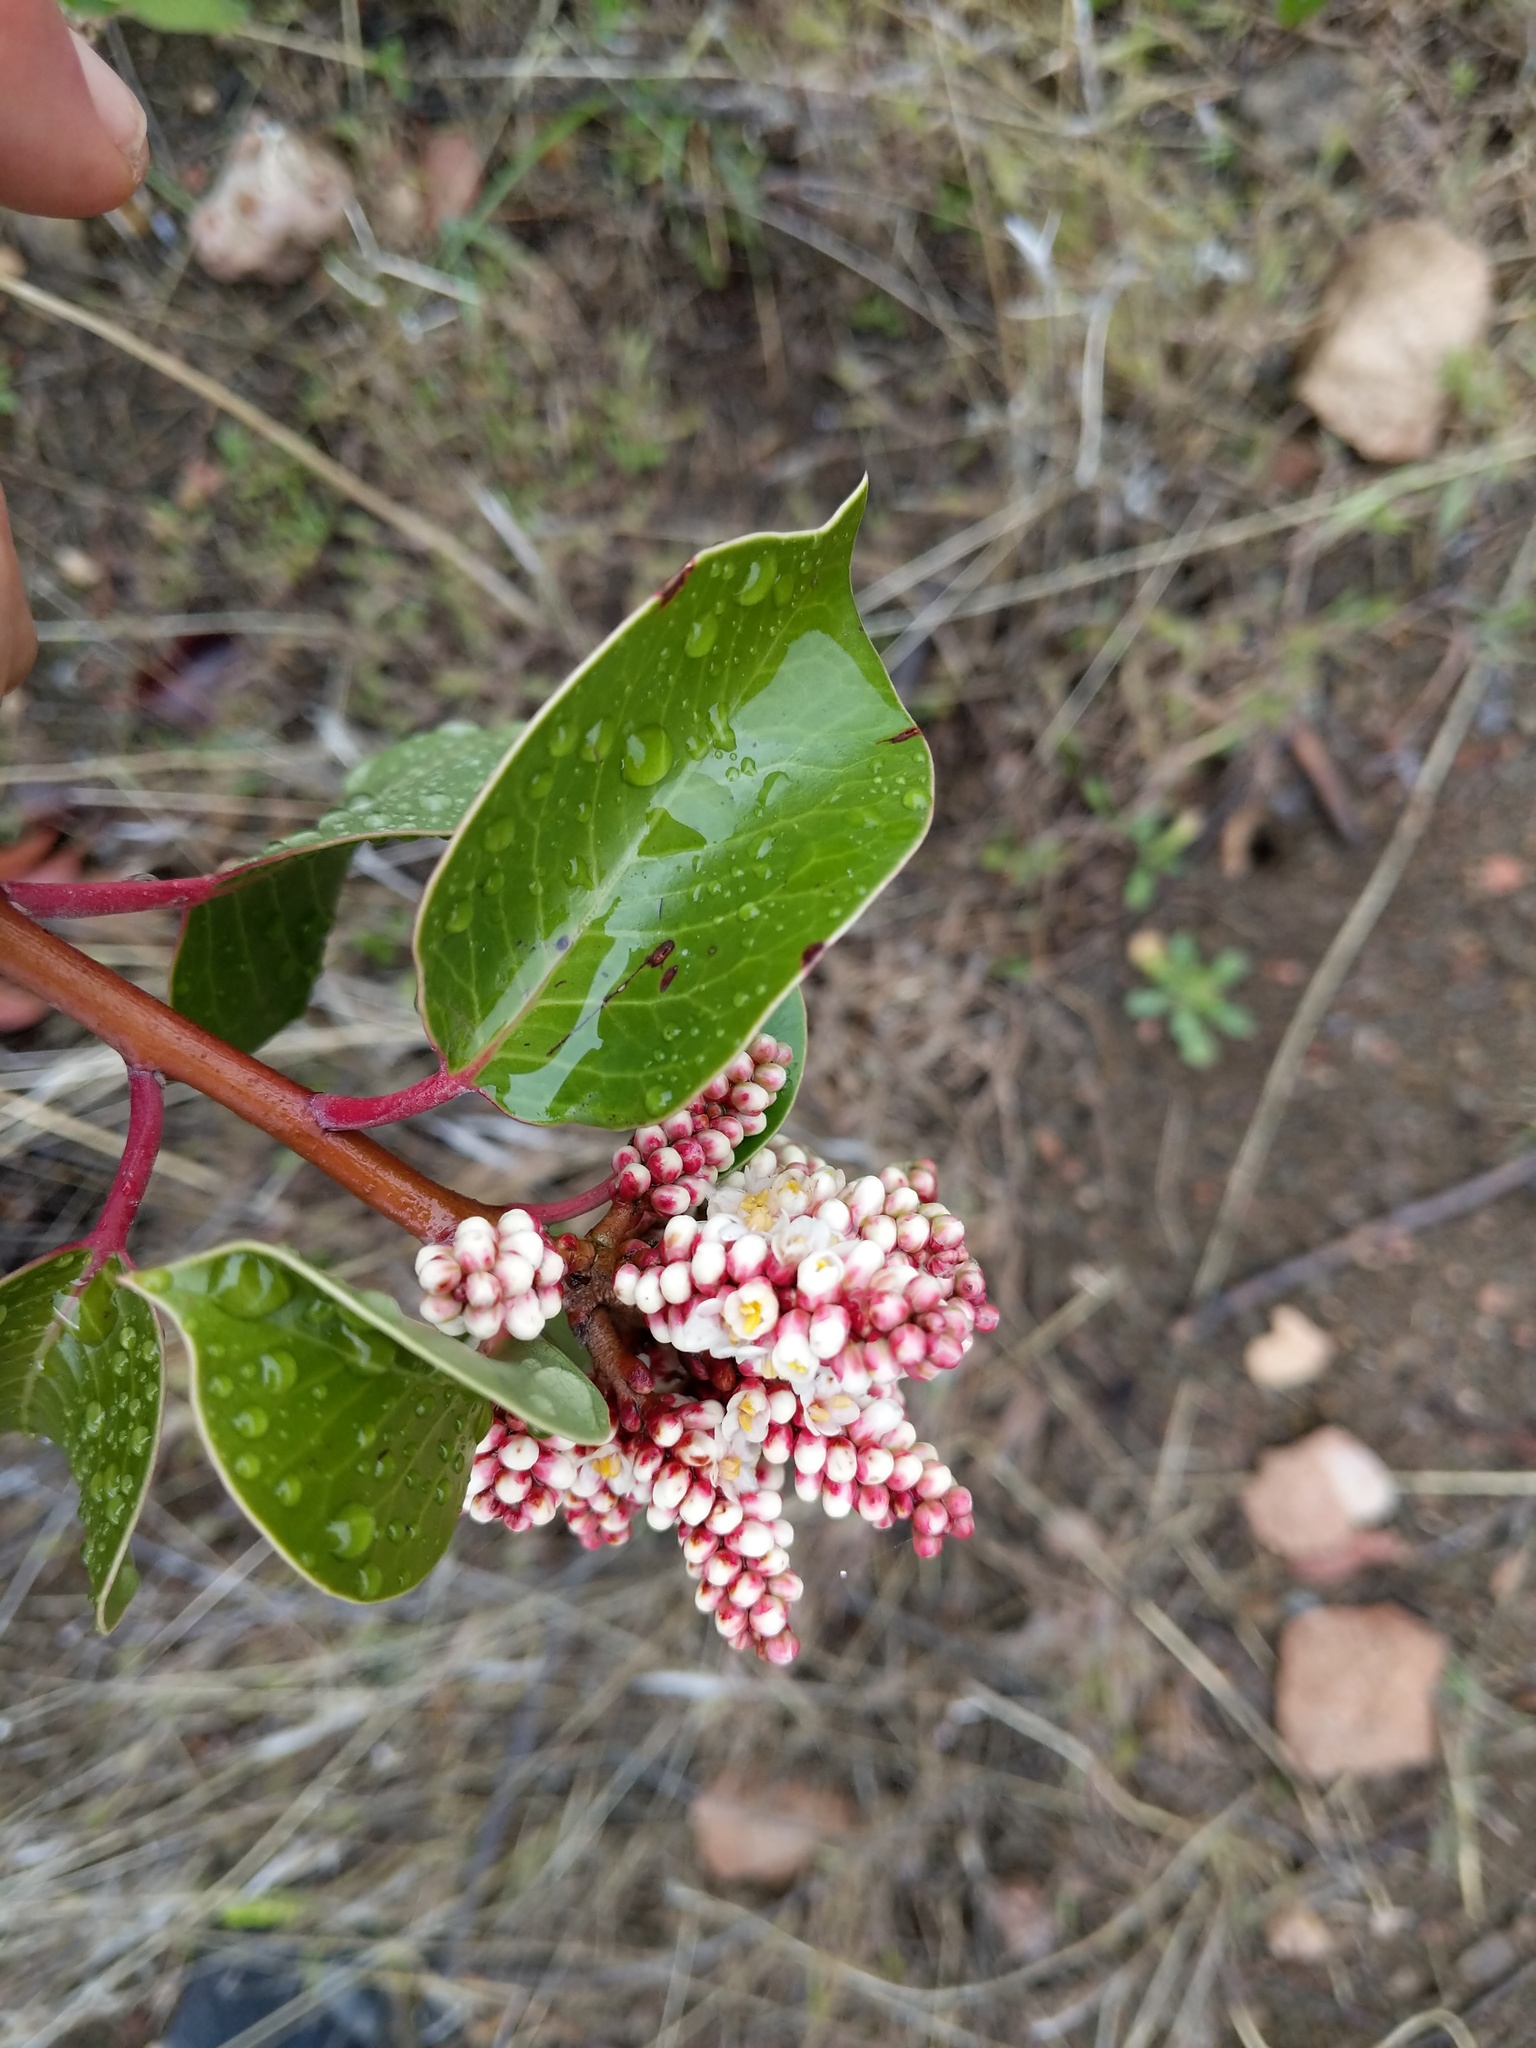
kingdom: Plantae
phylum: Tracheophyta
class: Magnoliopsida
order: Sapindales
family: Anacardiaceae
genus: Rhus
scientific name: Rhus ovata
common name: Sugar sumac
